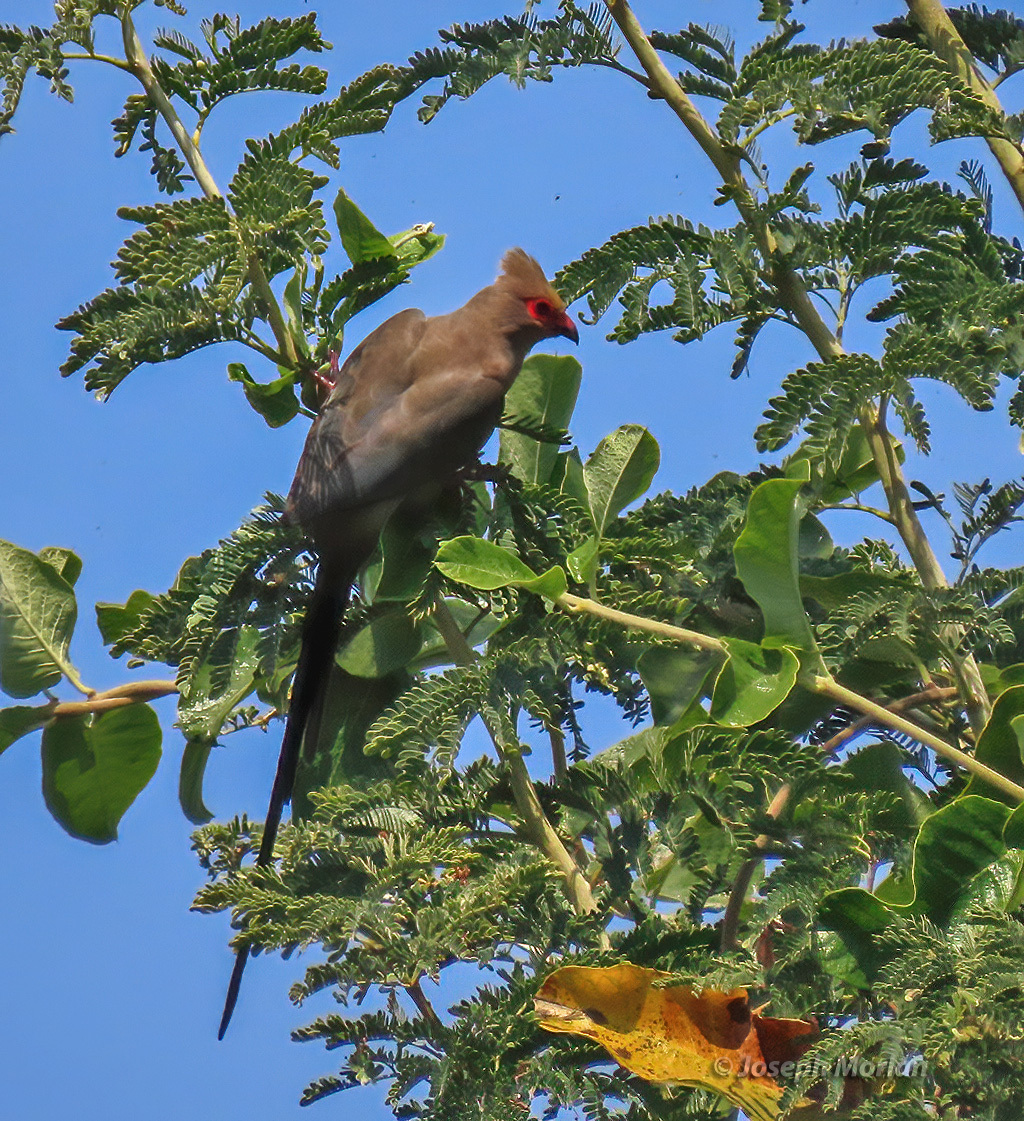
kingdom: Animalia
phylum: Chordata
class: Aves
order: Coliiformes
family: Coliidae
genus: Urocolius
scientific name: Urocolius indicus
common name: Red-faced mousebird
